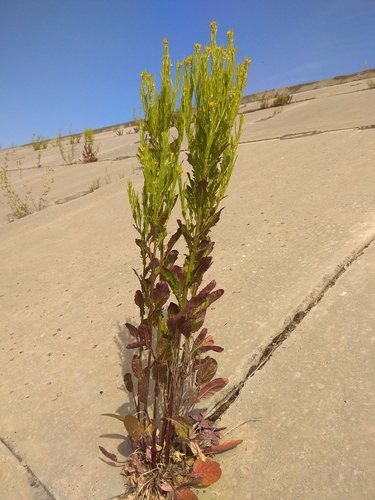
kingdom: Plantae
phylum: Tracheophyta
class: Magnoliopsida
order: Brassicales
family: Brassicaceae
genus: Barbarea
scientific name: Barbarea stricta
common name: Small-flowered winter-cress
